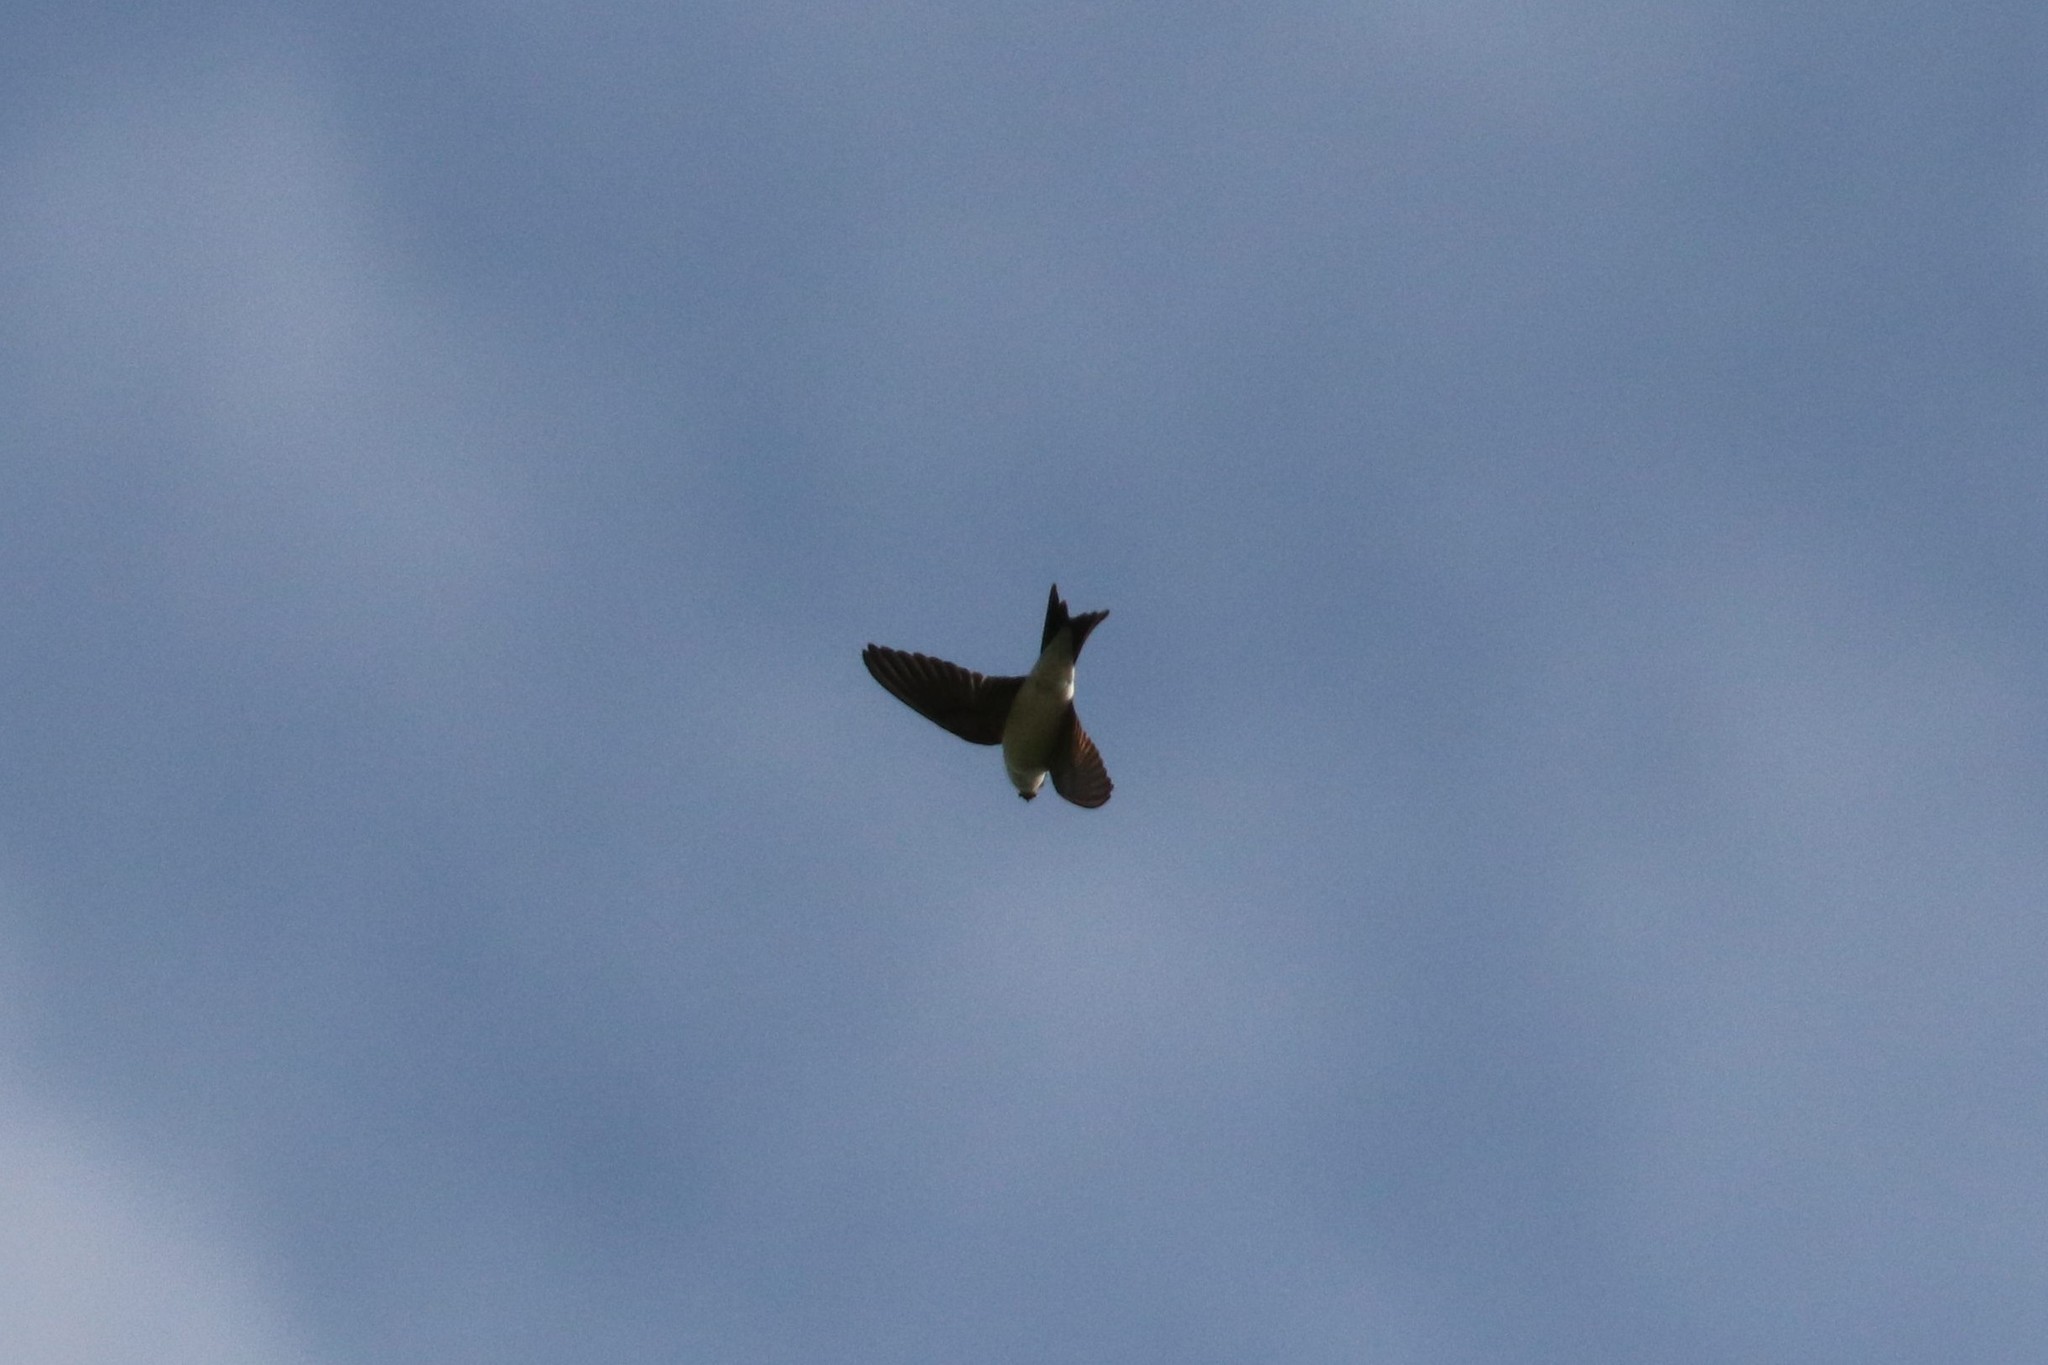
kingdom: Animalia
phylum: Chordata
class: Aves
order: Passeriformes
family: Hirundinidae
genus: Delichon
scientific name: Delichon urbicum
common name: Common house martin
